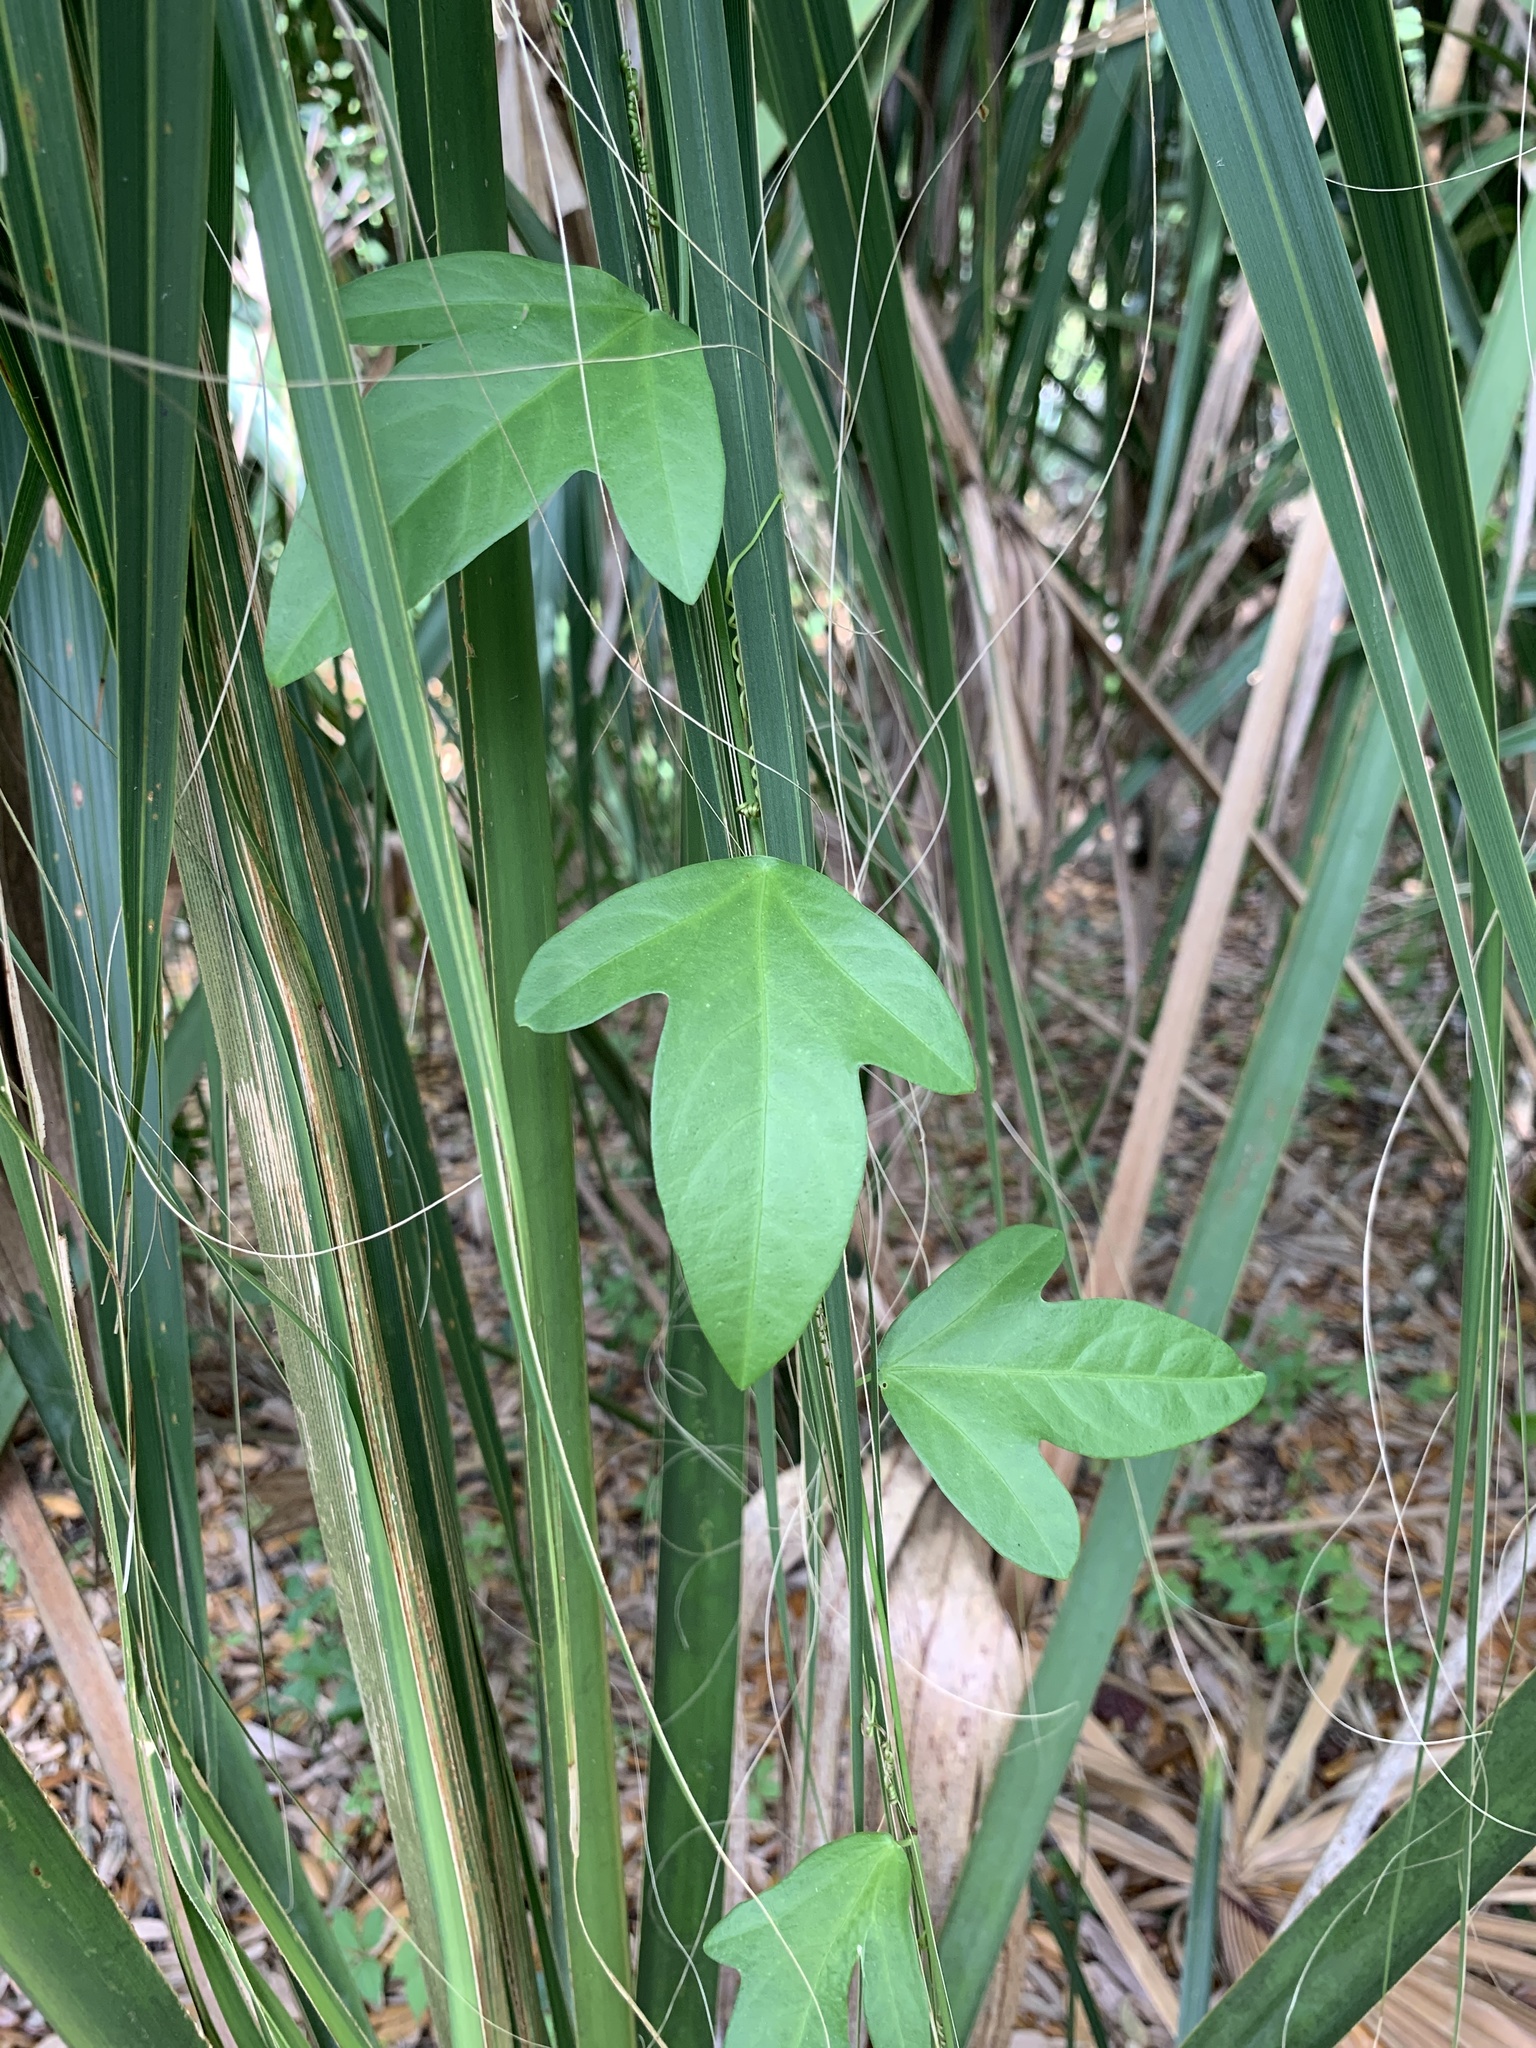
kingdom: Plantae
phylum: Tracheophyta
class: Magnoliopsida
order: Malpighiales
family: Passifloraceae
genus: Passiflora
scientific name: Passiflora pallida
